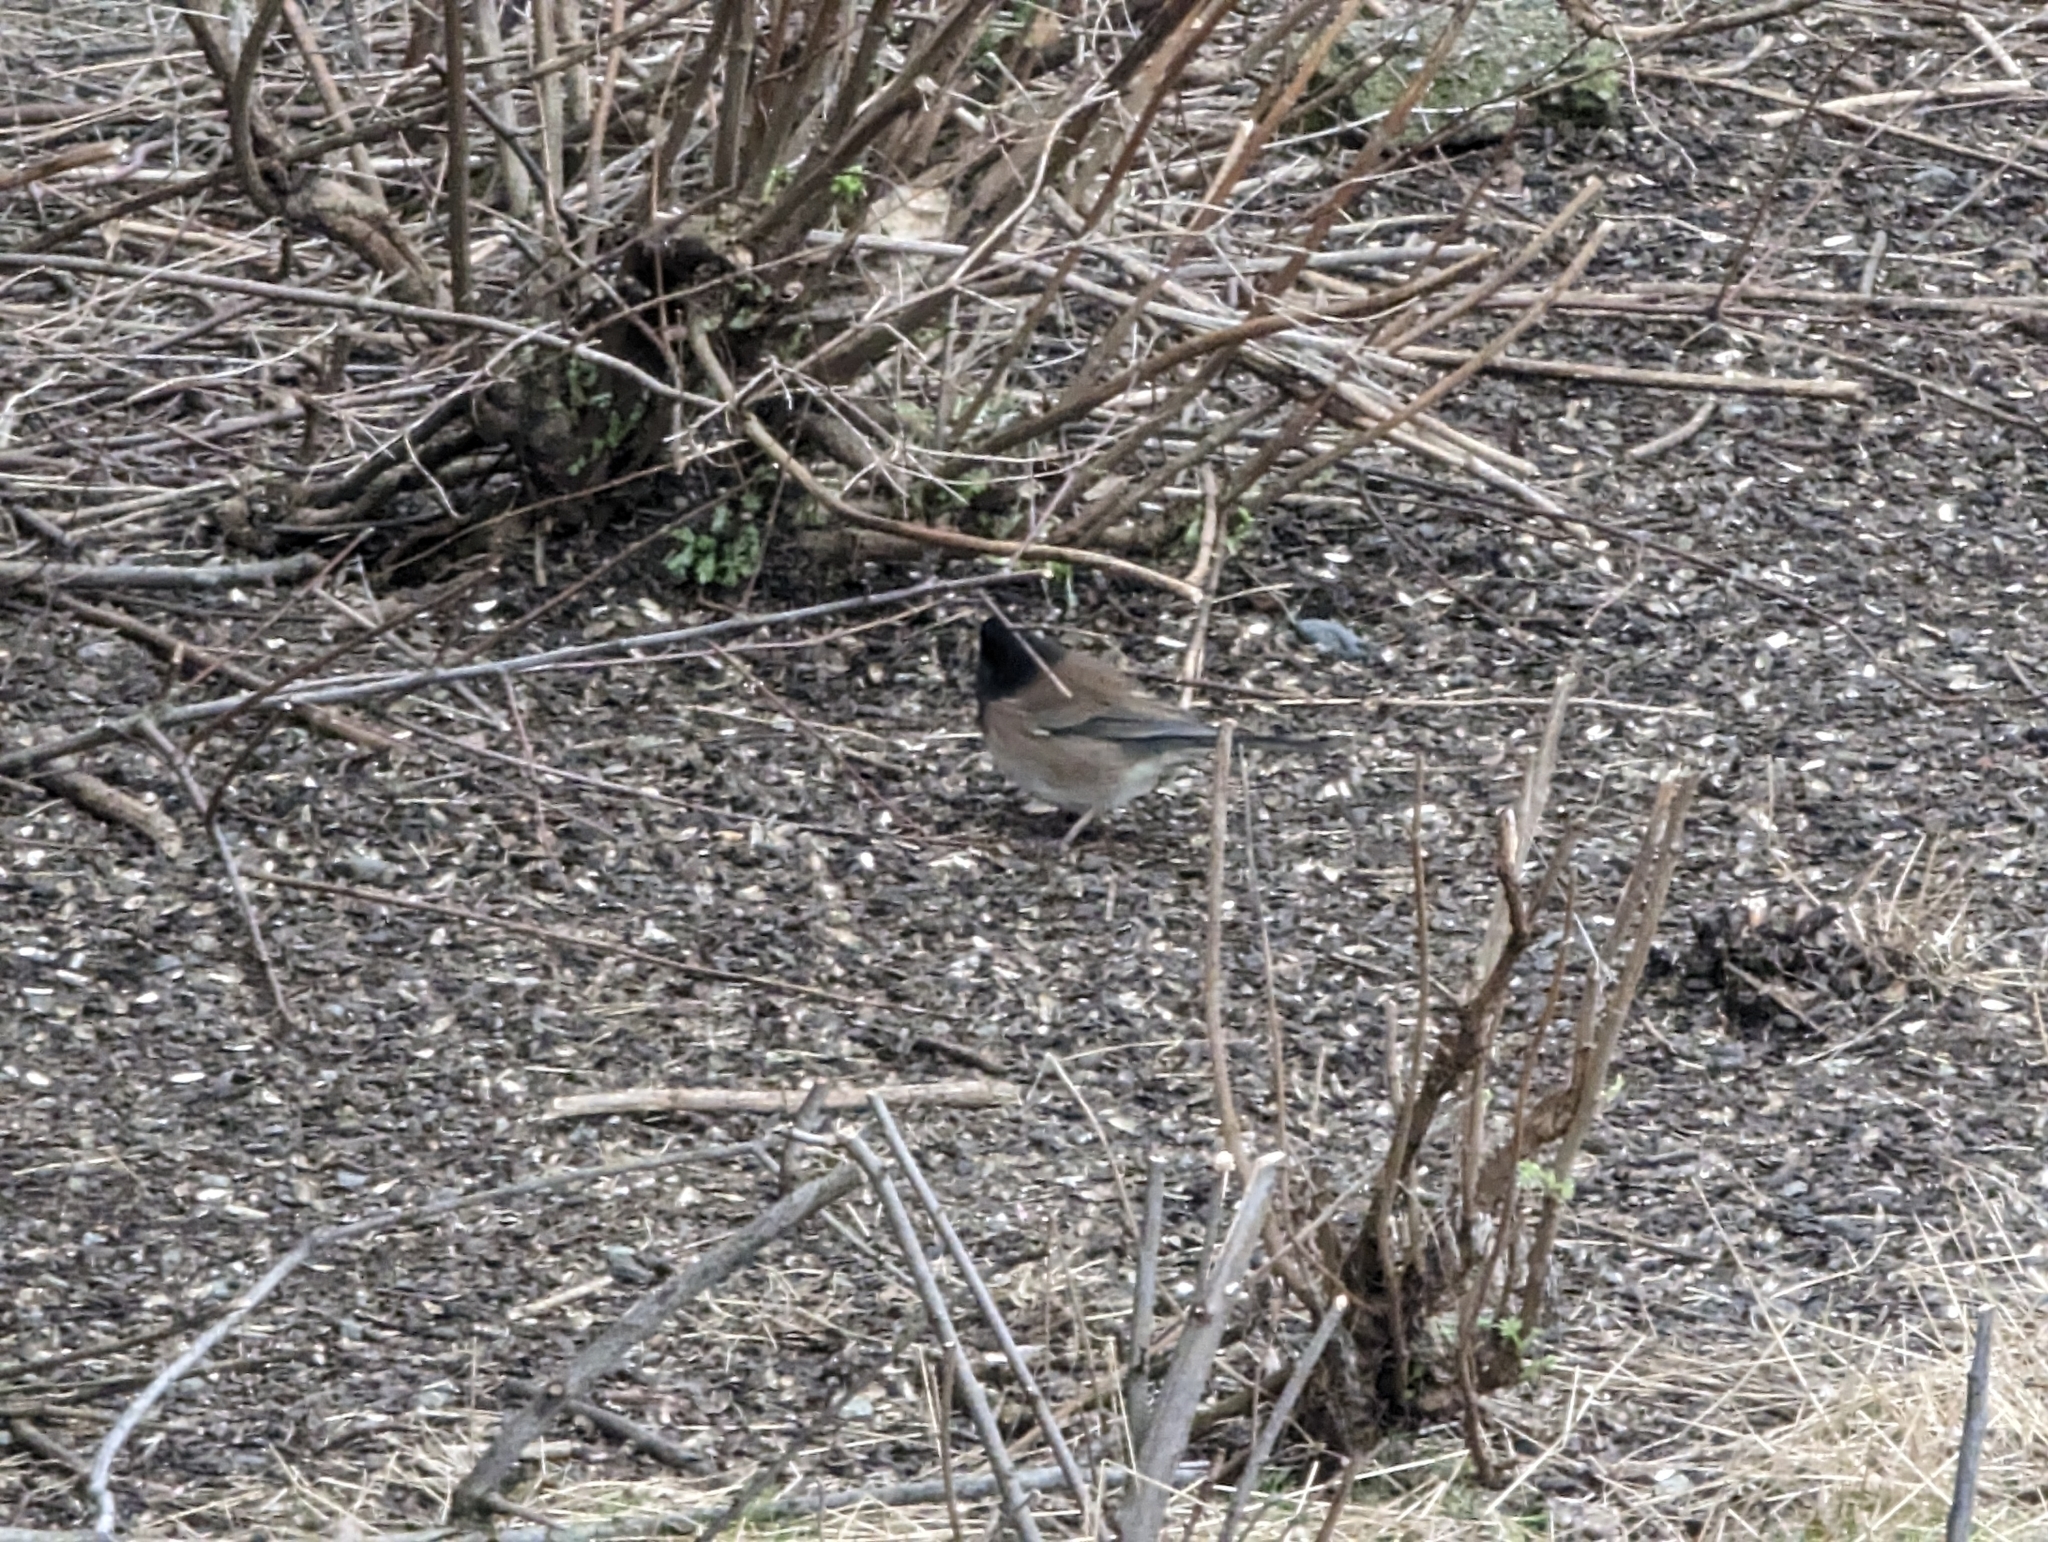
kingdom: Animalia
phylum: Chordata
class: Aves
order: Passeriformes
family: Passerellidae
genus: Junco
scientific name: Junco hyemalis
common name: Dark-eyed junco
